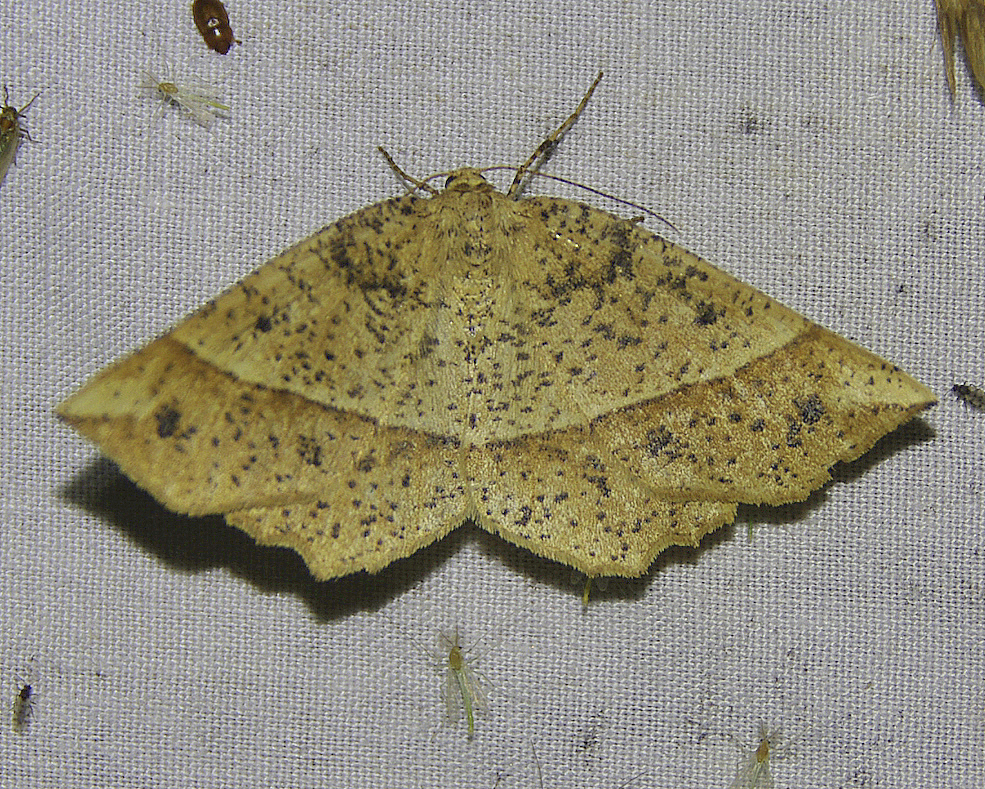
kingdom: Animalia
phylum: Arthropoda
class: Insecta
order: Lepidoptera
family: Geometridae
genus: Euchlaena
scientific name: Euchlaena tigrinaria
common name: Mottled euchlaena moth
